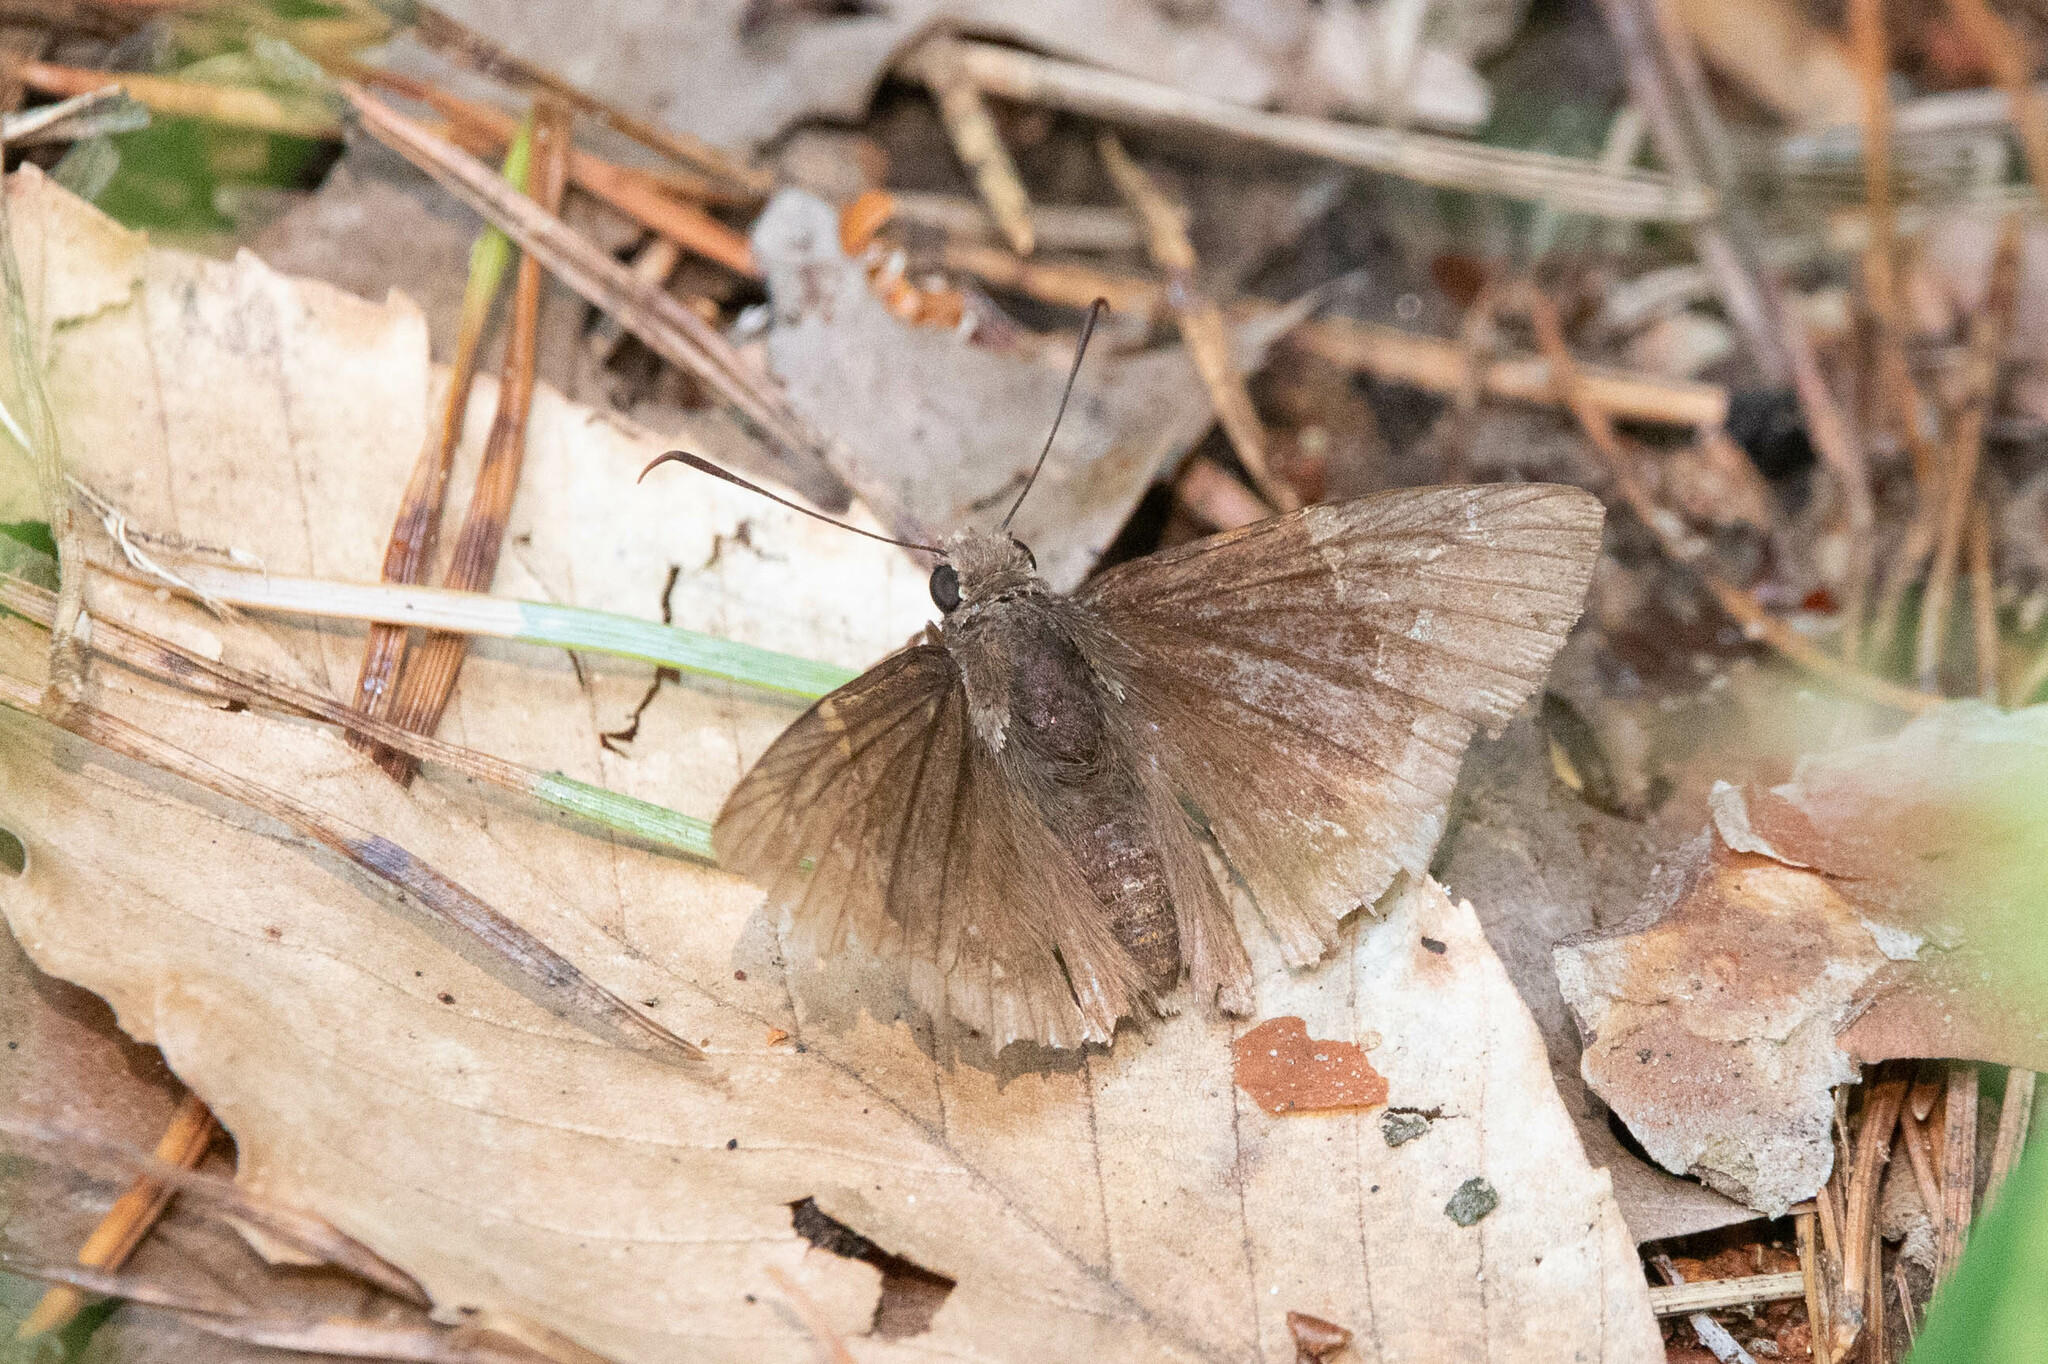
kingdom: Animalia
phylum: Arthropoda
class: Insecta
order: Lepidoptera
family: Hesperiidae
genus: Thorybes
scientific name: Thorybes pylades
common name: Northern cloudywing
